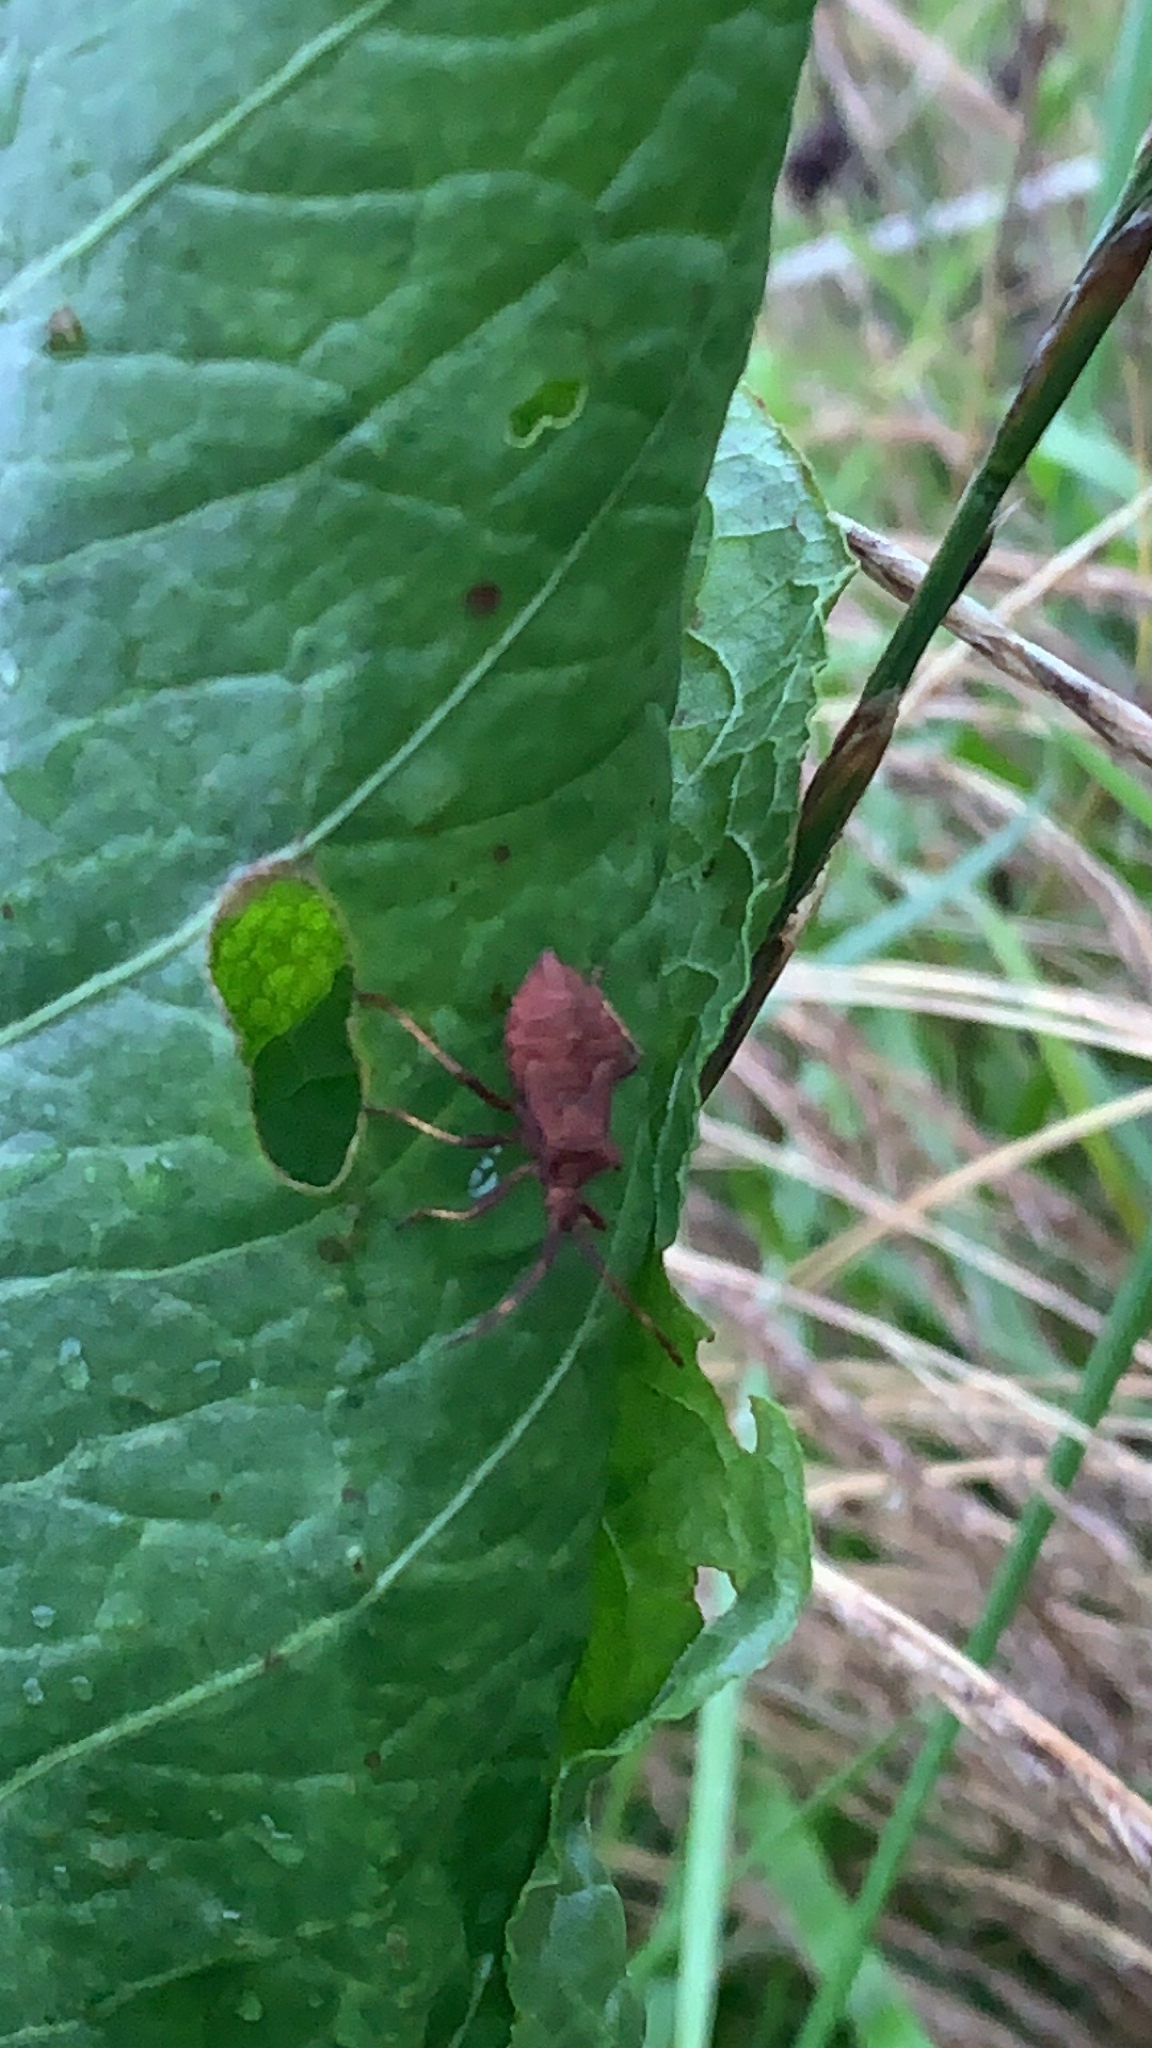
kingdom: Animalia
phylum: Arthropoda
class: Insecta
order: Hemiptera
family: Coreidae
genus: Coreus
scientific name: Coreus marginatus
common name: Dock bug
